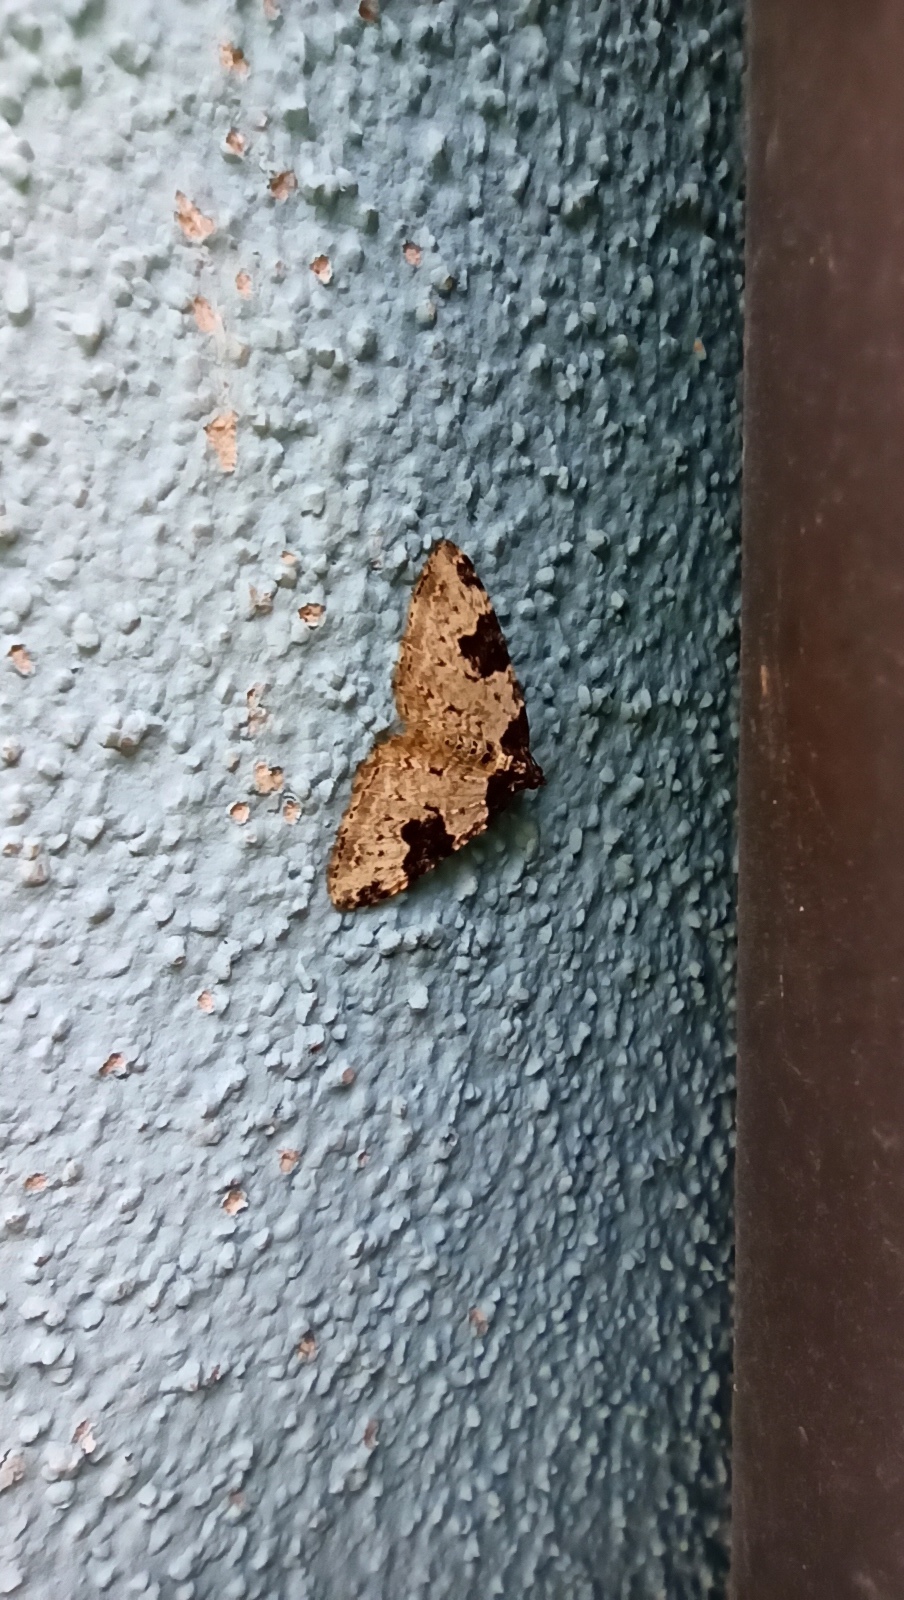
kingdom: Animalia
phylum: Arthropoda
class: Insecta
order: Lepidoptera
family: Geometridae
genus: Xanthorhoe
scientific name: Xanthorhoe fluctuata
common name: Garden carpet
